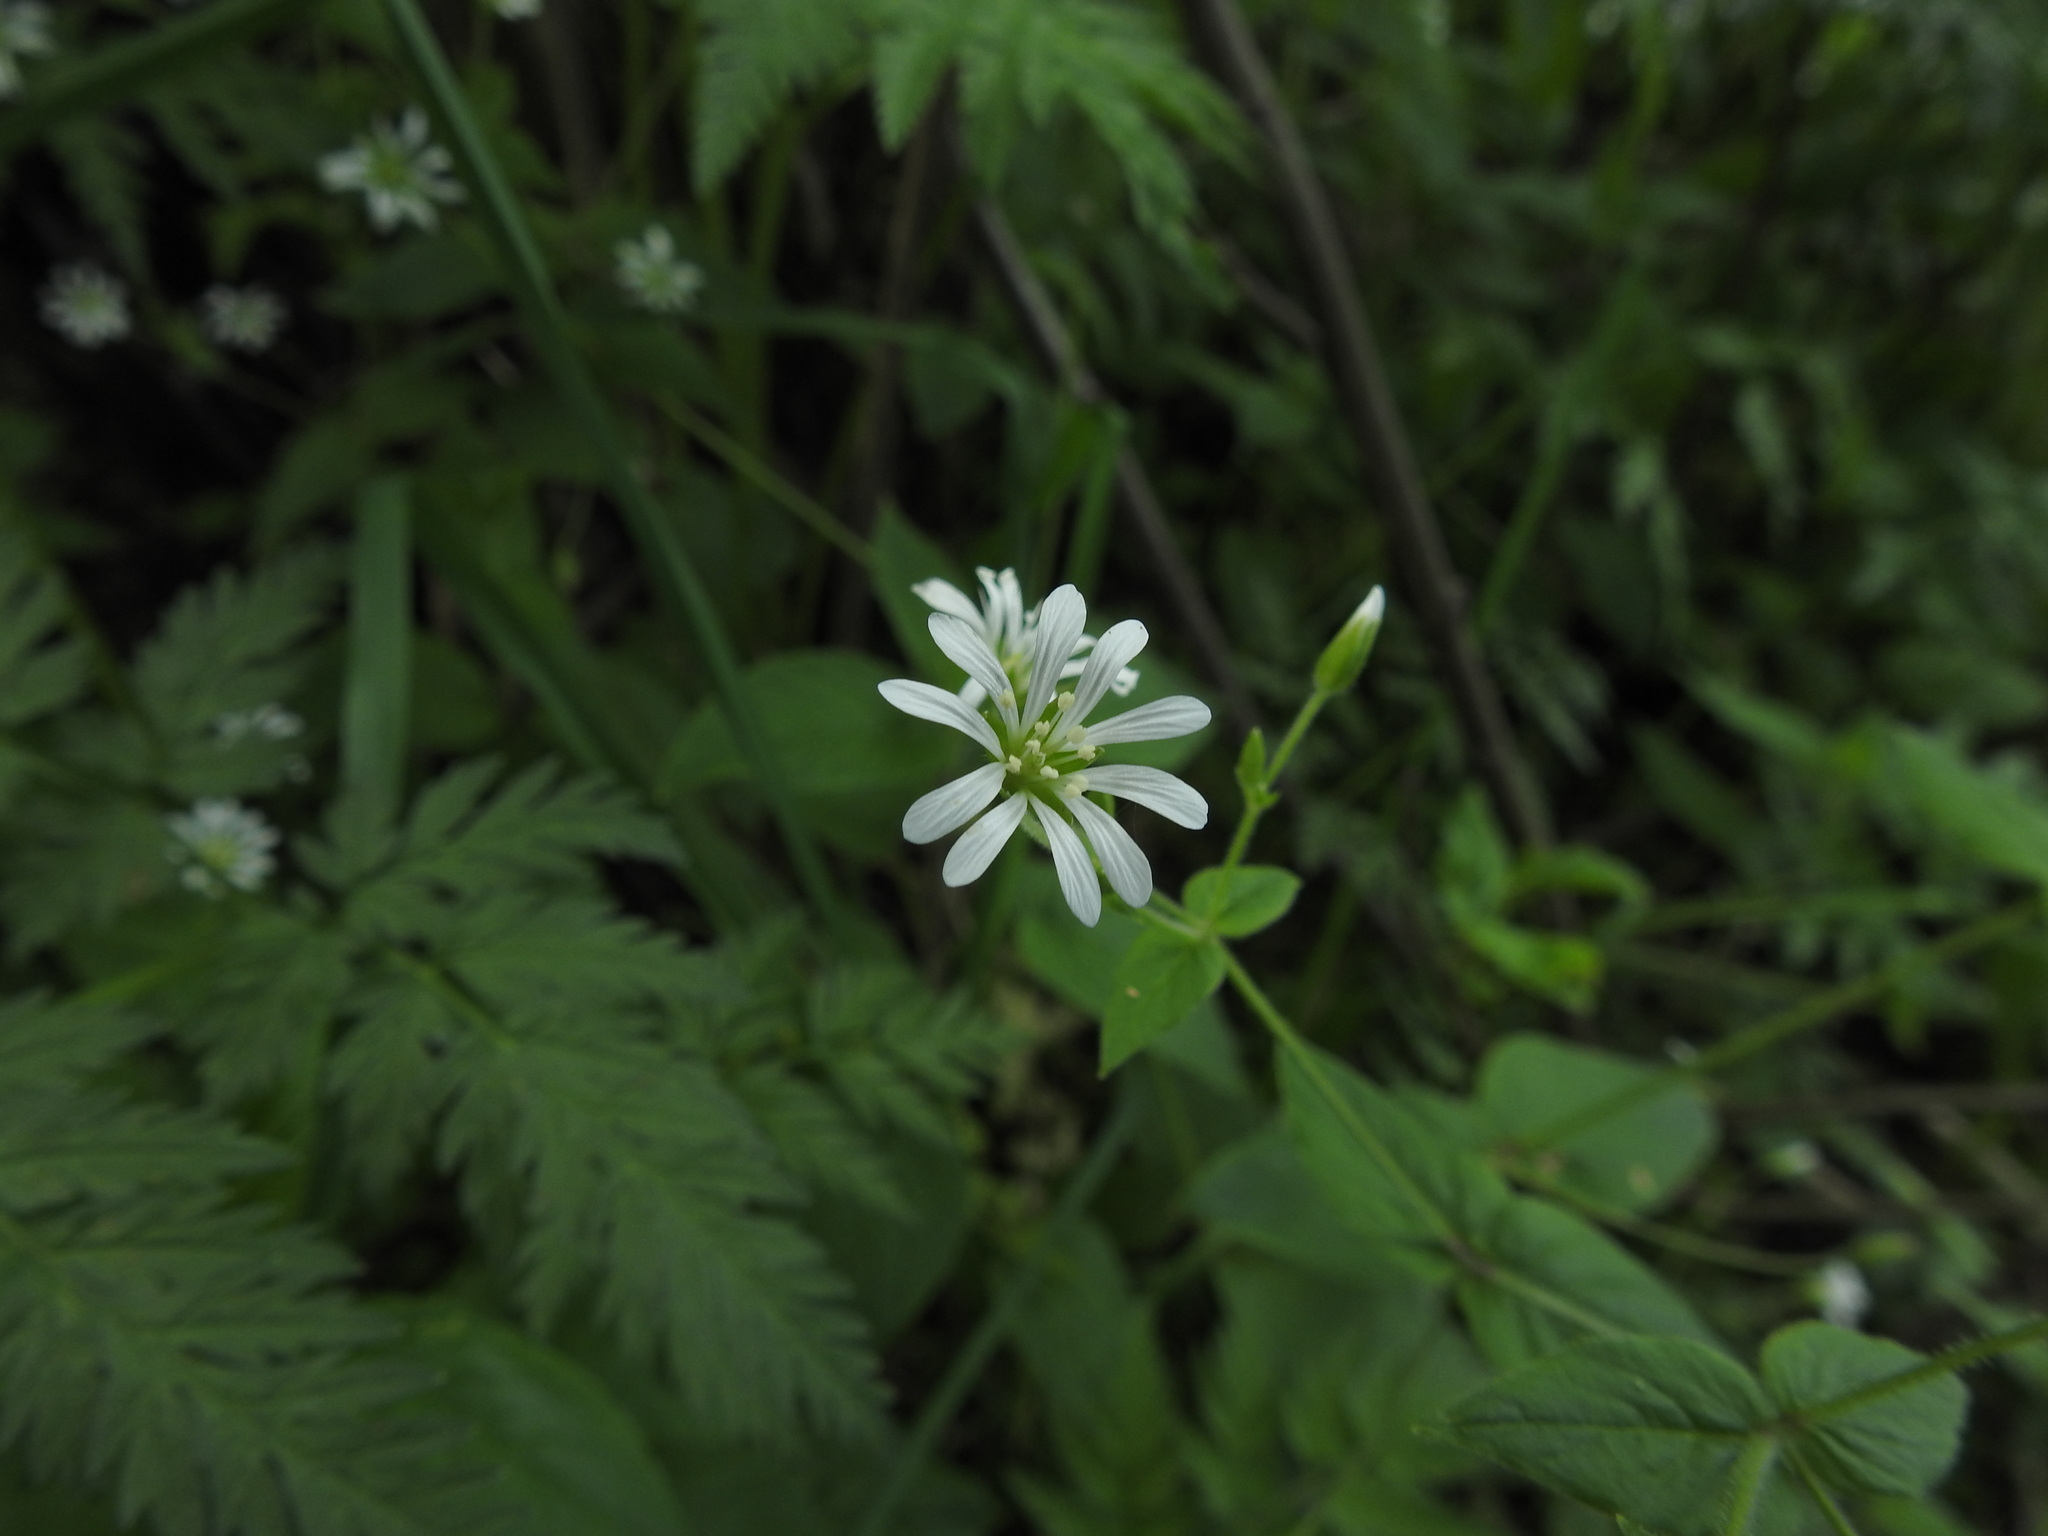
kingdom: Plantae
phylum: Tracheophyta
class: Magnoliopsida
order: Caryophyllales
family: Caryophyllaceae
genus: Stellaria
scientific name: Stellaria nemorum
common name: Wood stitchwort
